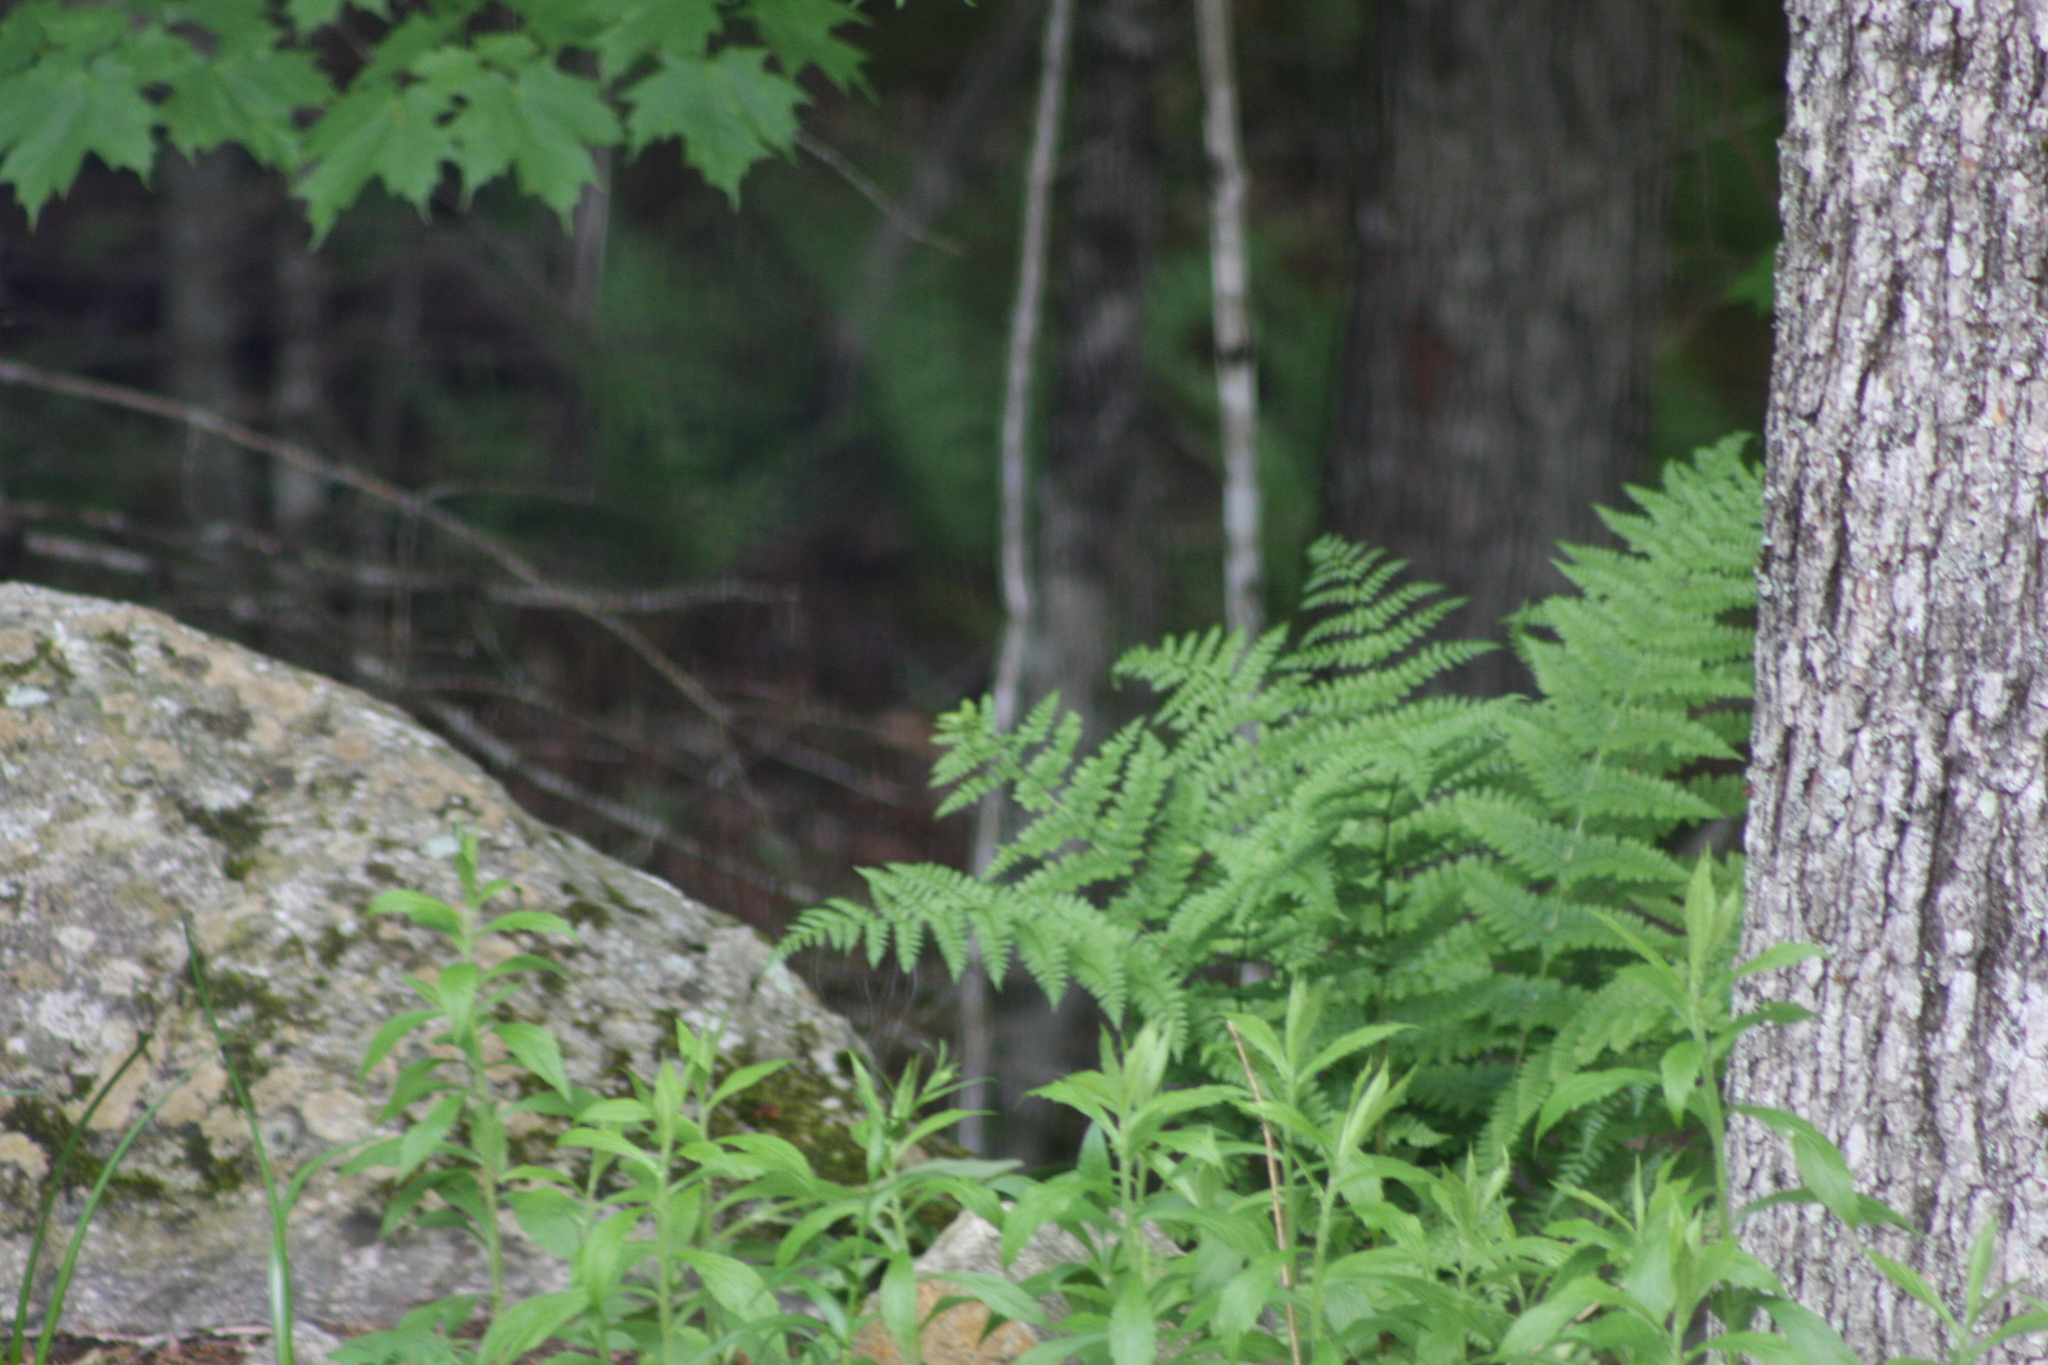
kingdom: Plantae
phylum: Tracheophyta
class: Polypodiopsida
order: Polypodiales
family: Dryopteridaceae
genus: Dryopteris
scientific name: Dryopteris intermedia
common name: Evergreen wood fern
